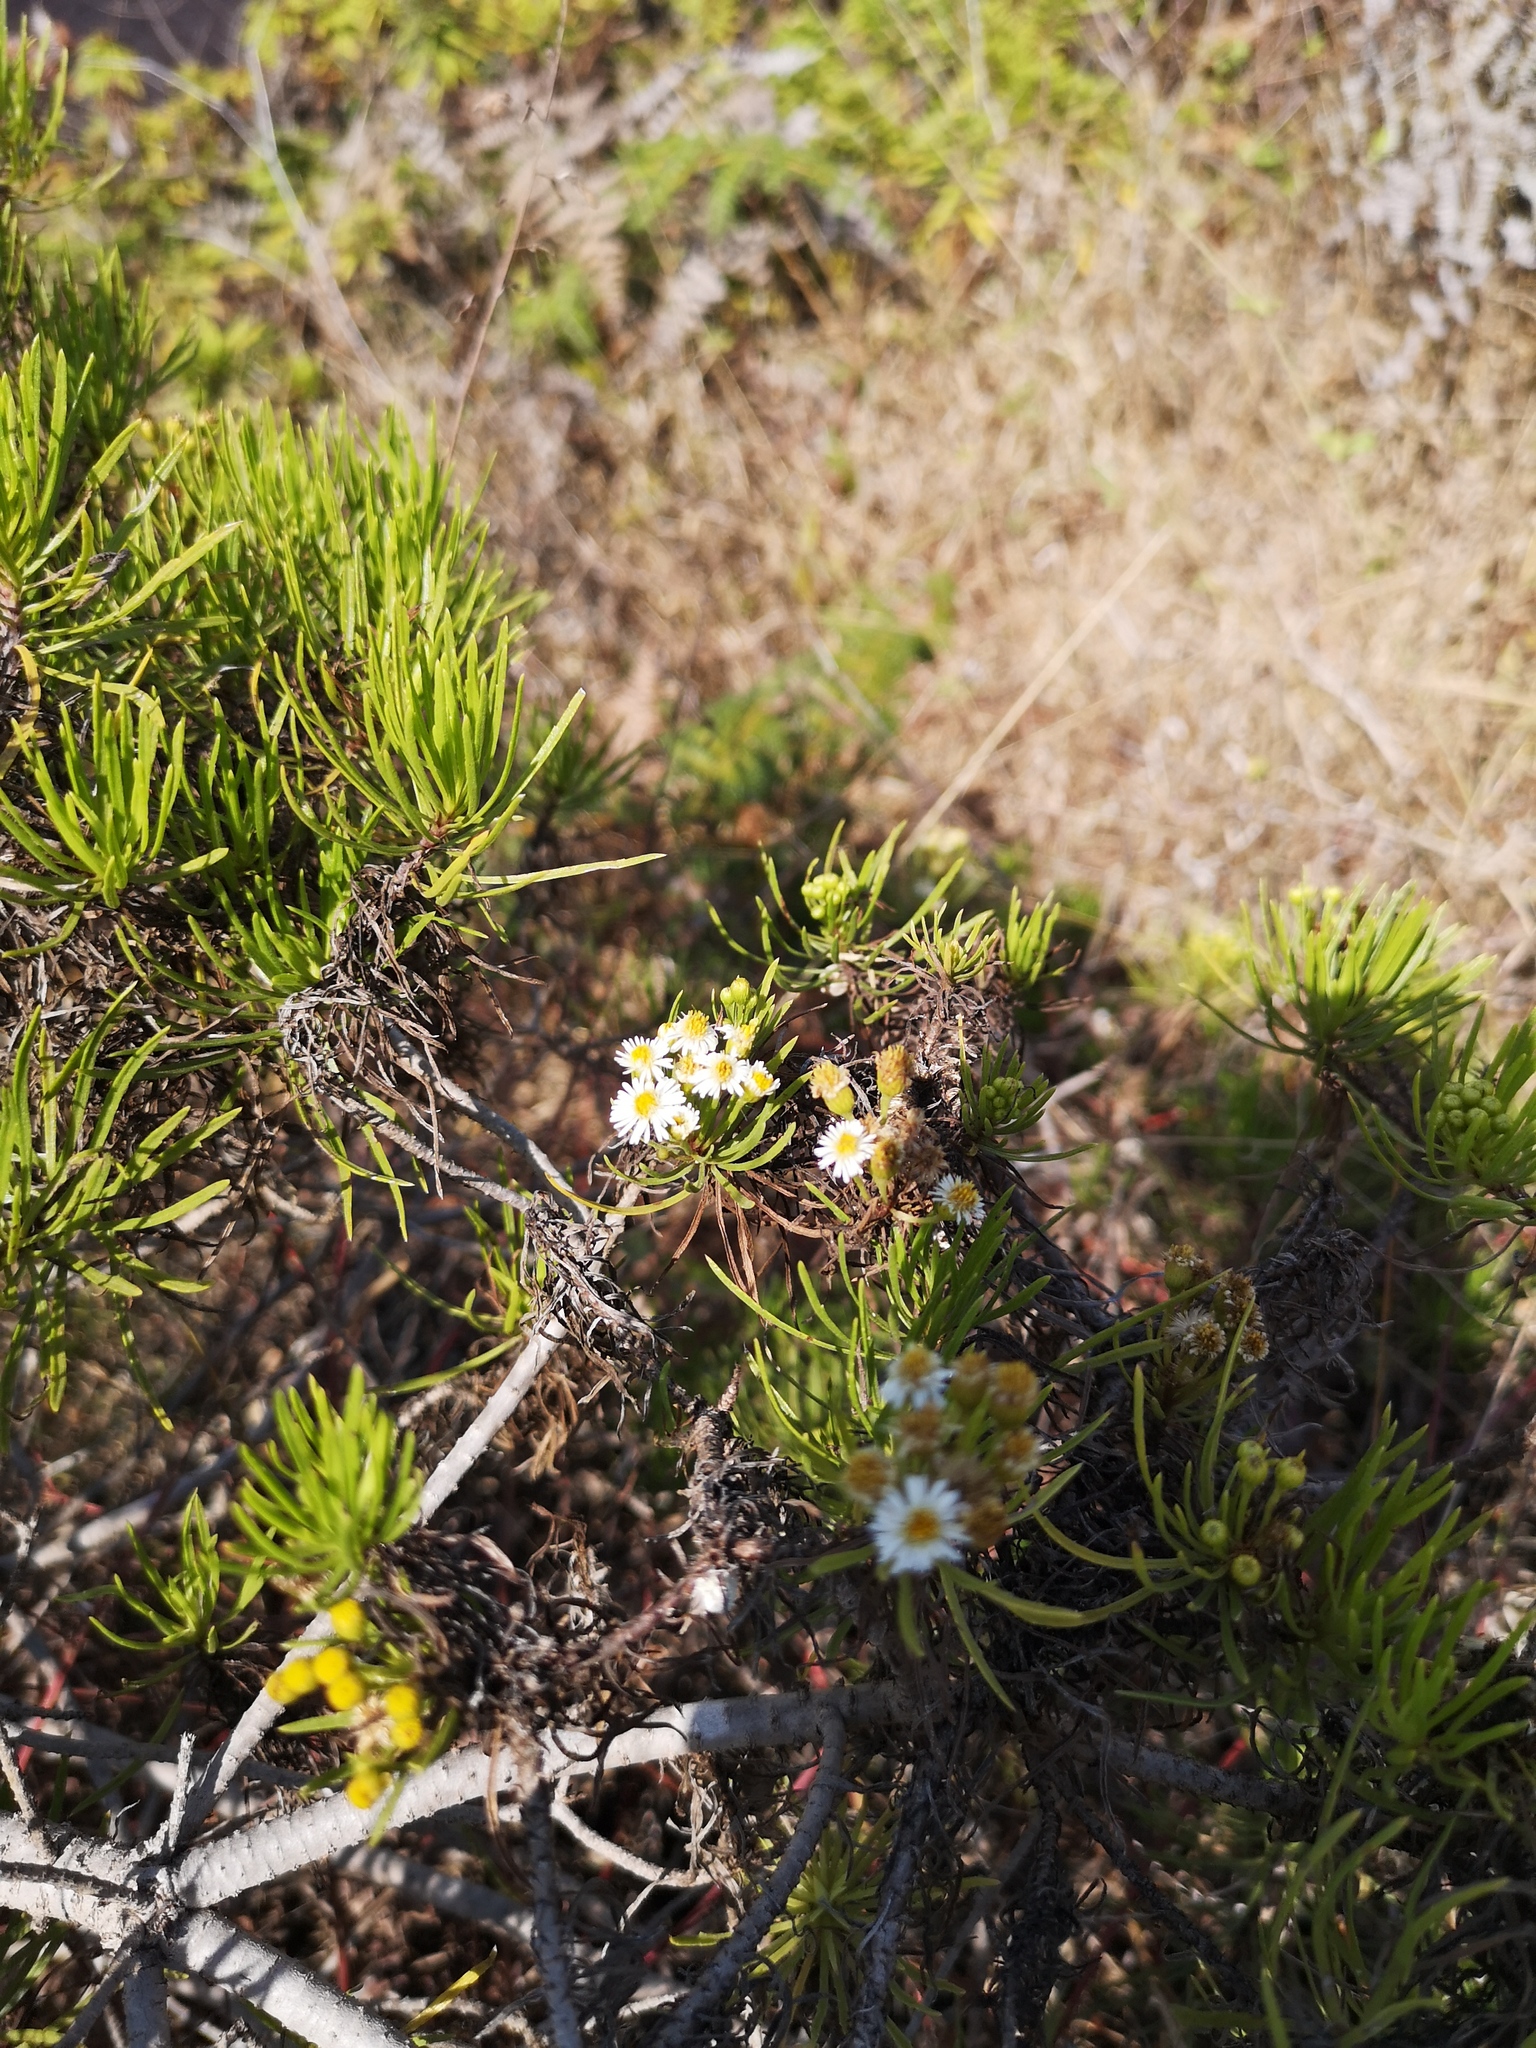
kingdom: Plantae
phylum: Tracheophyta
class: Magnoliopsida
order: Asterales
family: Asteraceae
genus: Erigeron
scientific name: Erigeron tenuifolius
